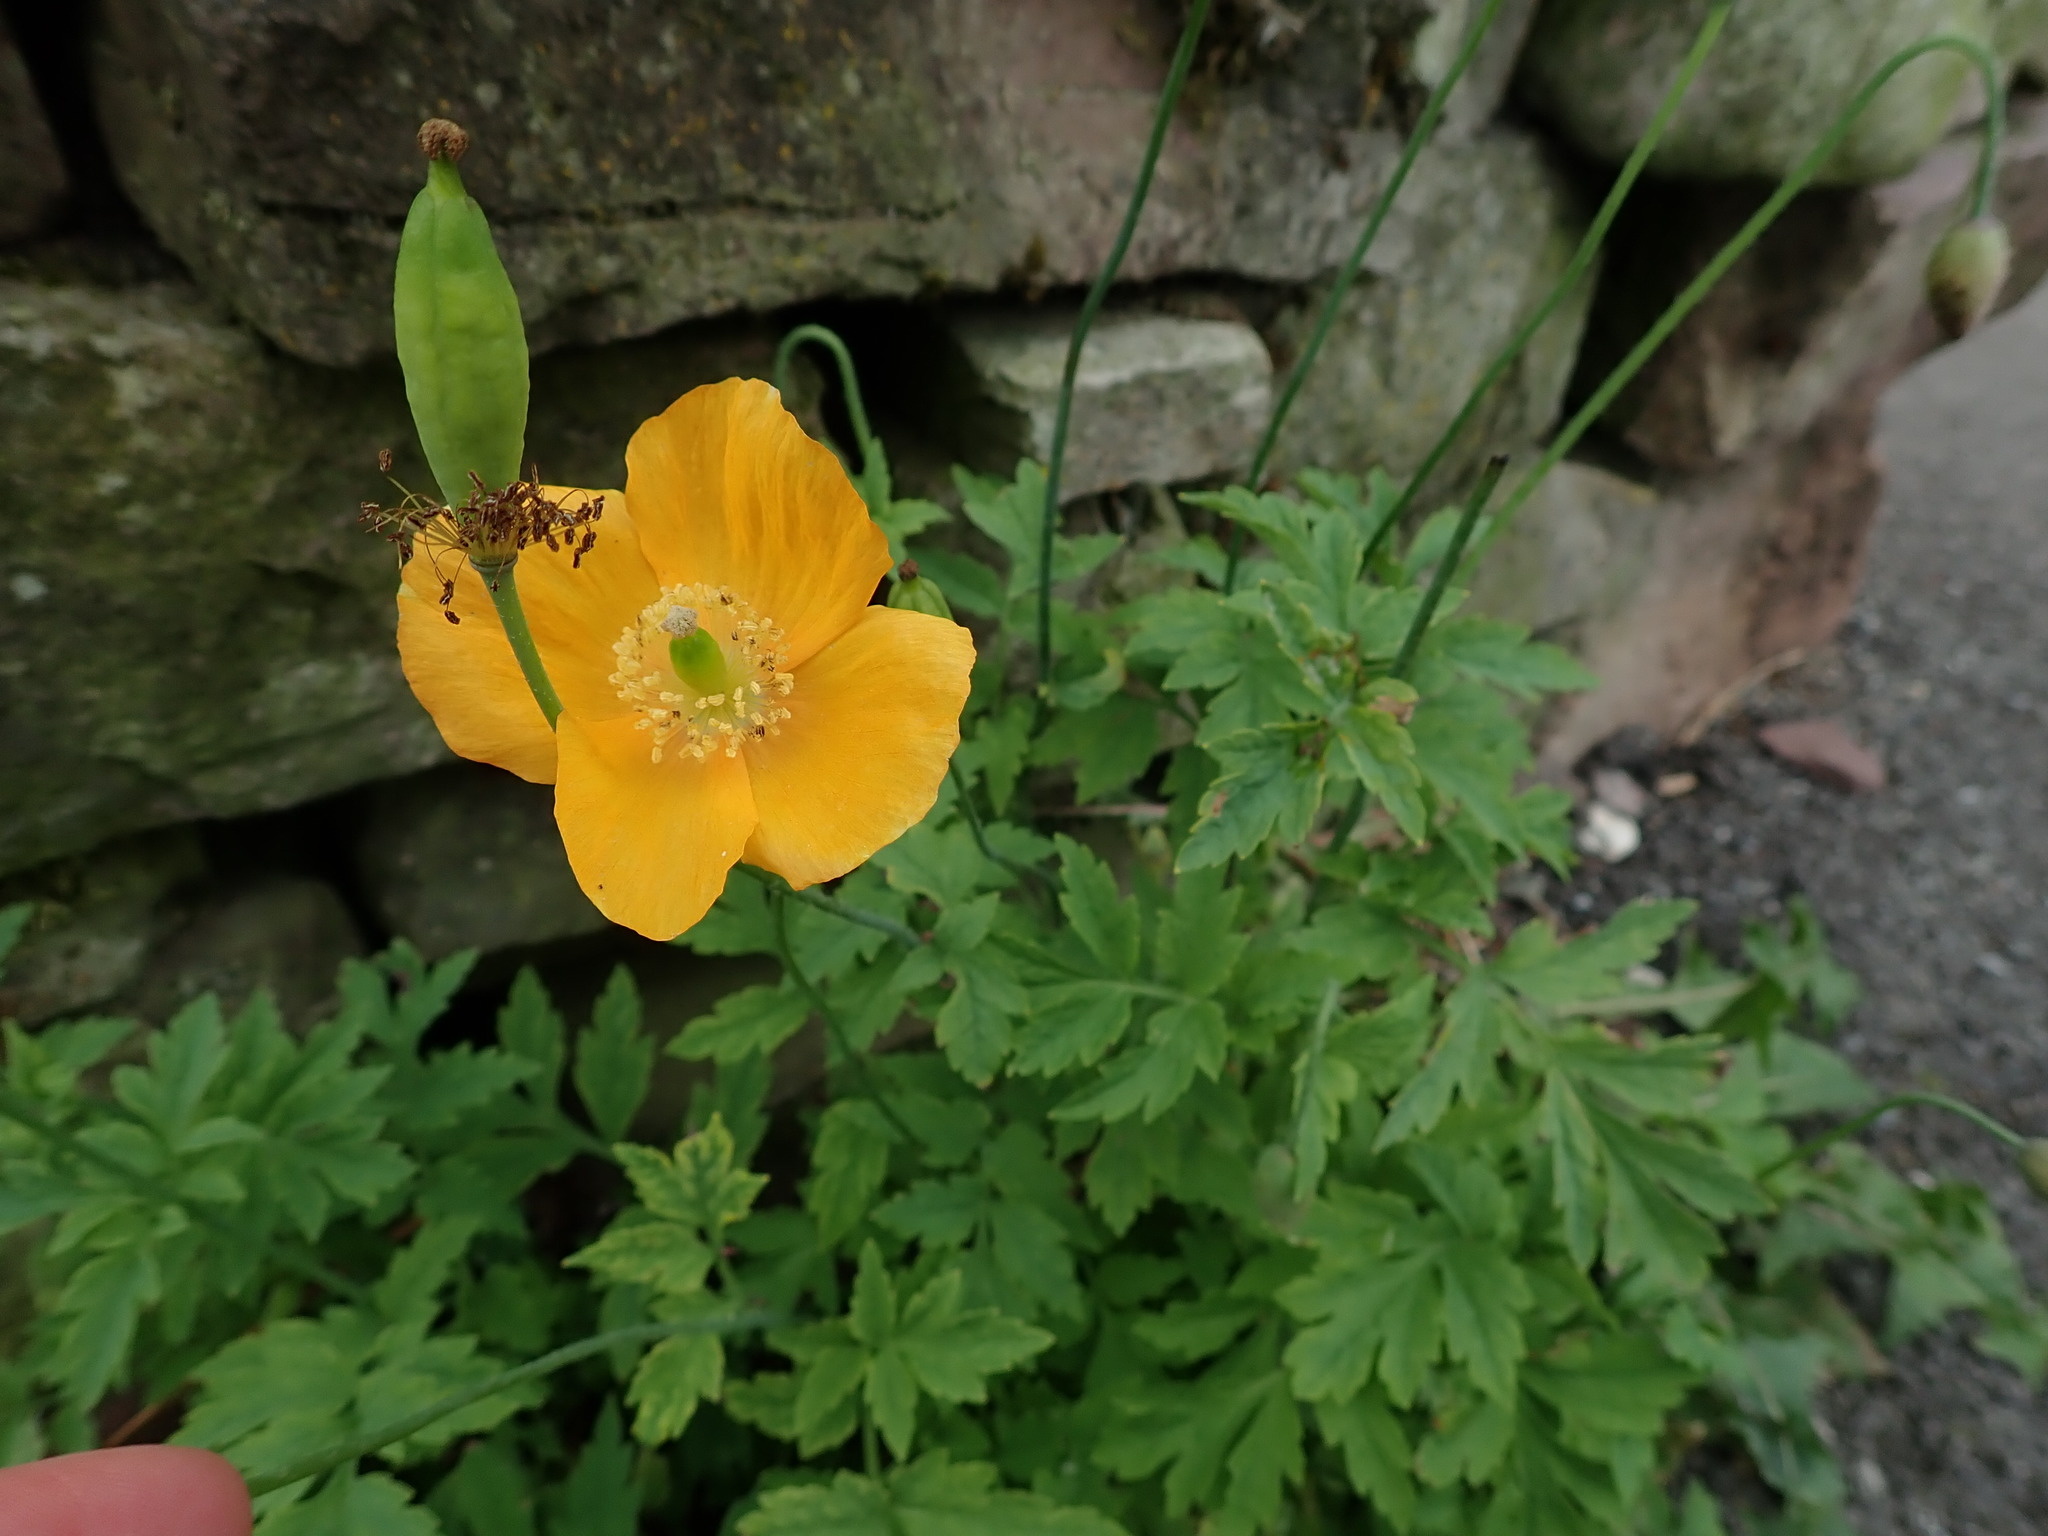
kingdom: Plantae
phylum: Tracheophyta
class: Magnoliopsida
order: Ranunculales
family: Papaveraceae
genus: Papaver
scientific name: Papaver cambricum
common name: Poppy
